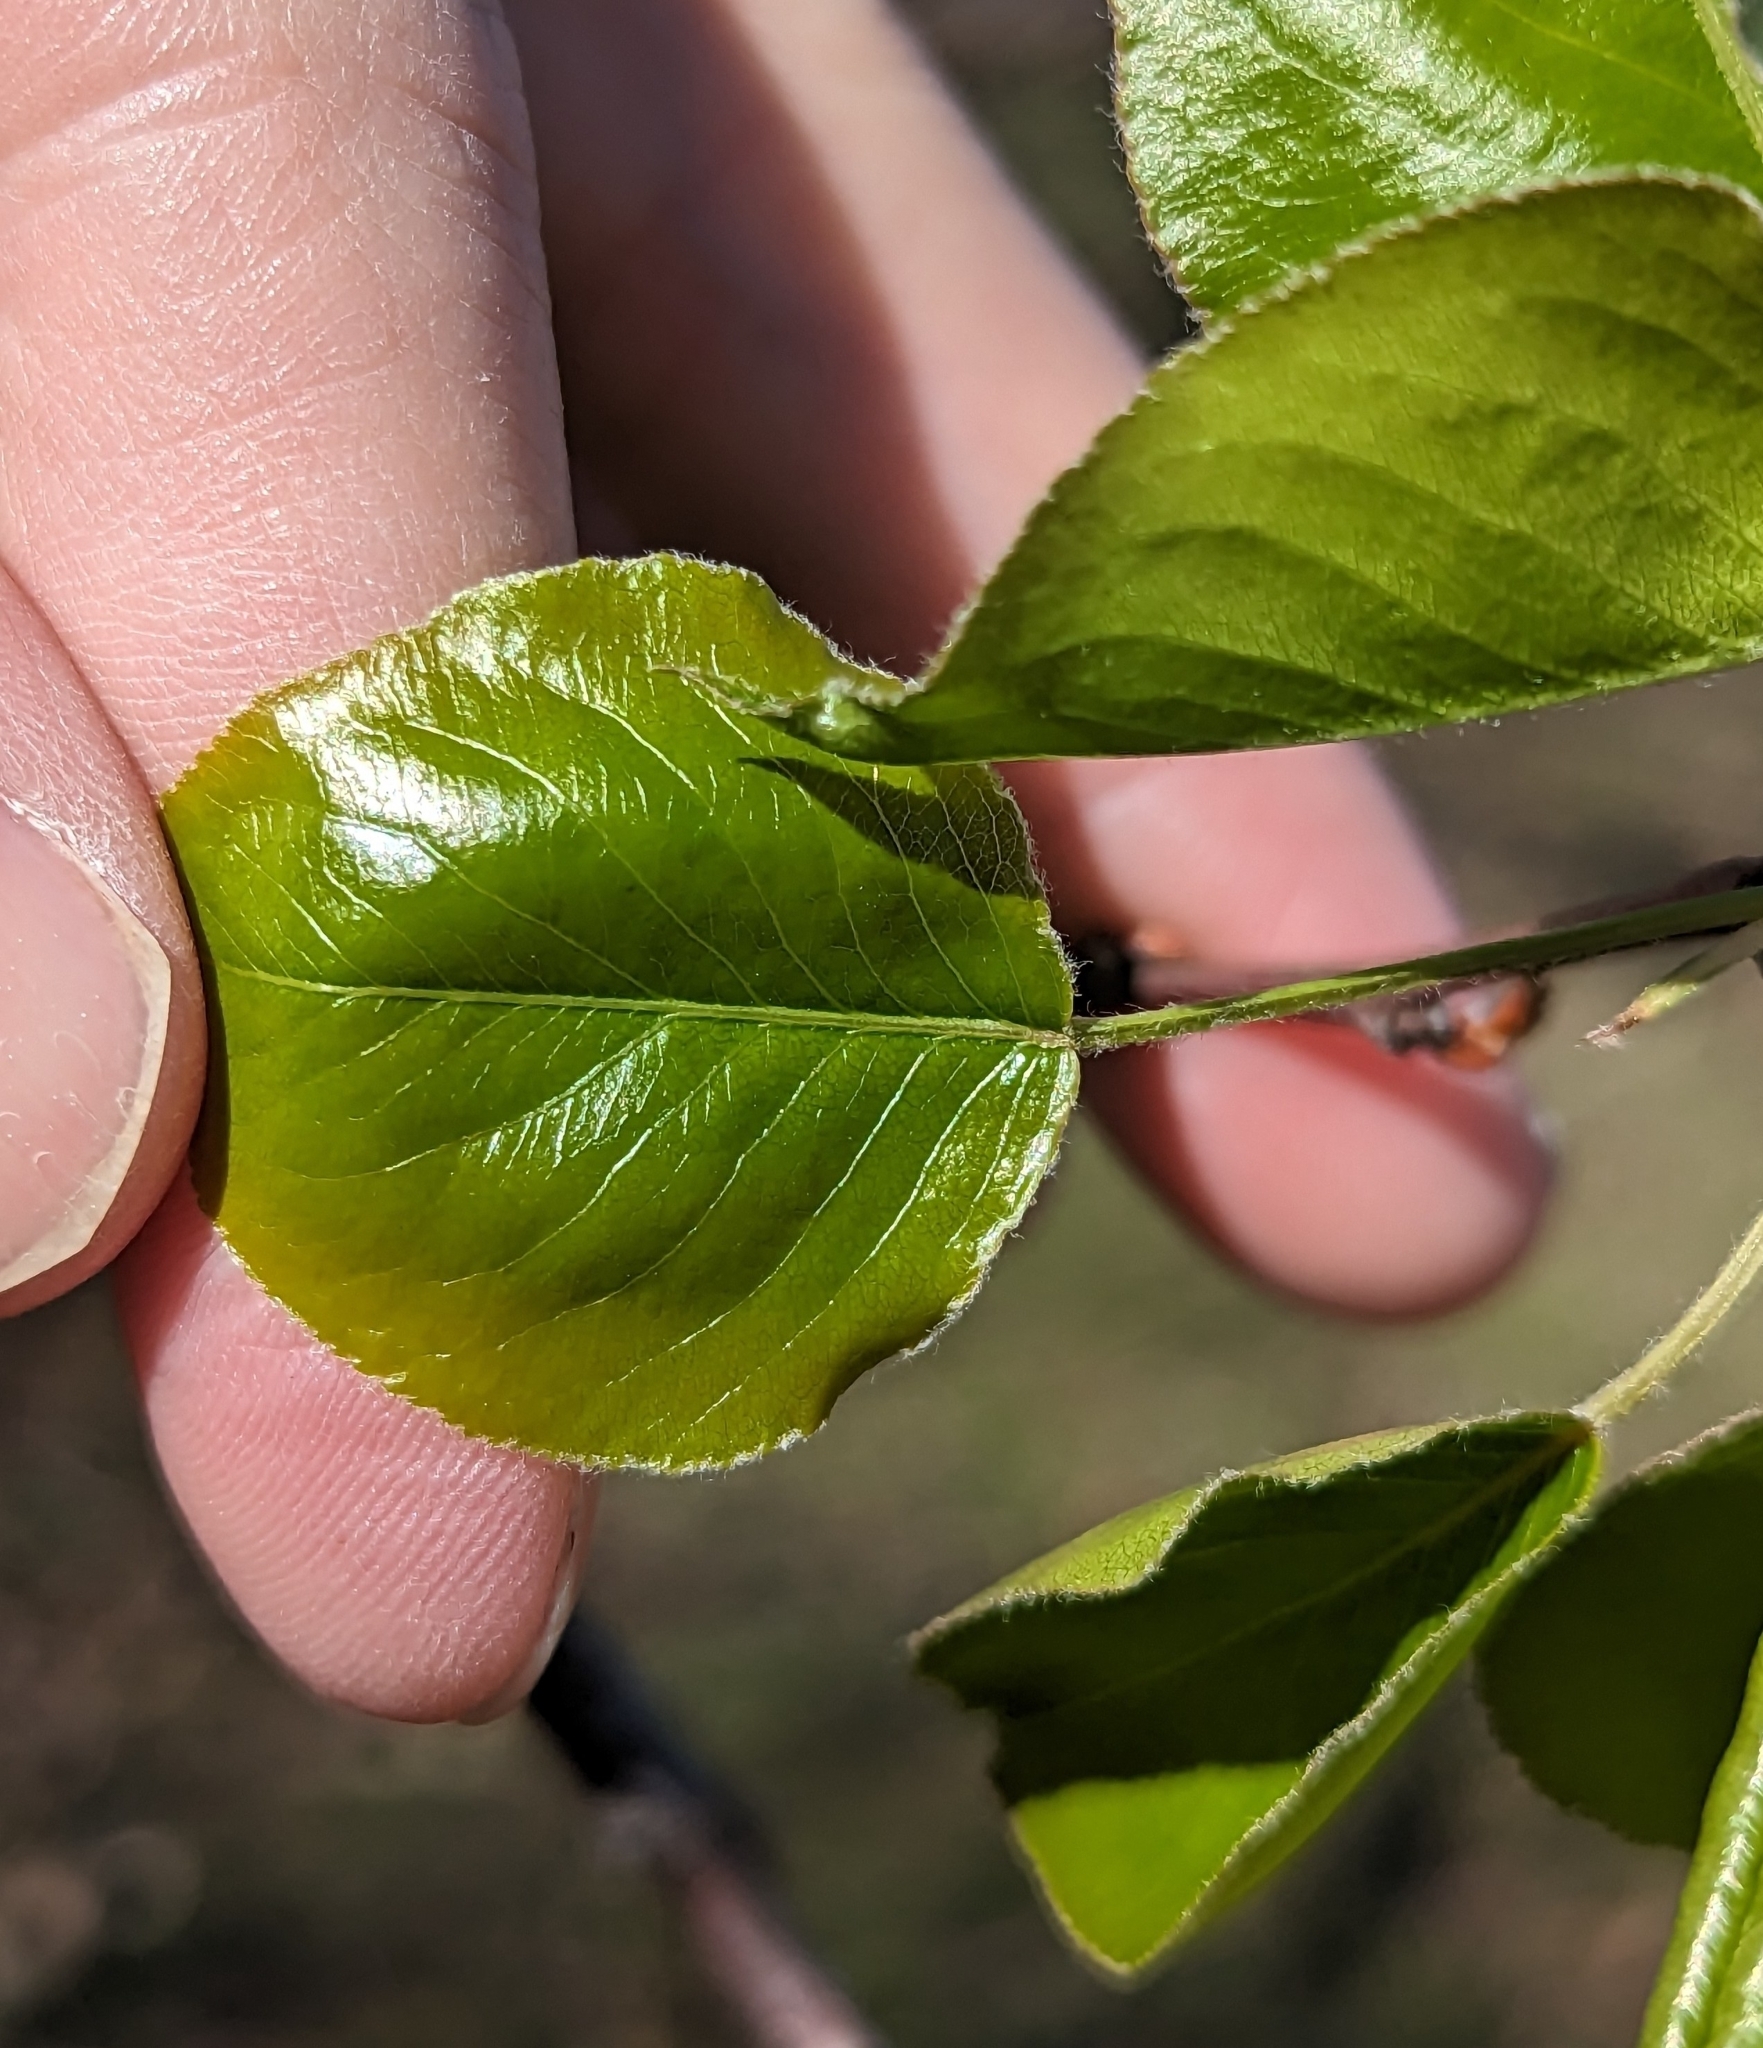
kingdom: Plantae
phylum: Tracheophyta
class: Magnoliopsida
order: Rosales
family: Rosaceae
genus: Pyrus
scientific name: Pyrus calleryana
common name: Callery pear
